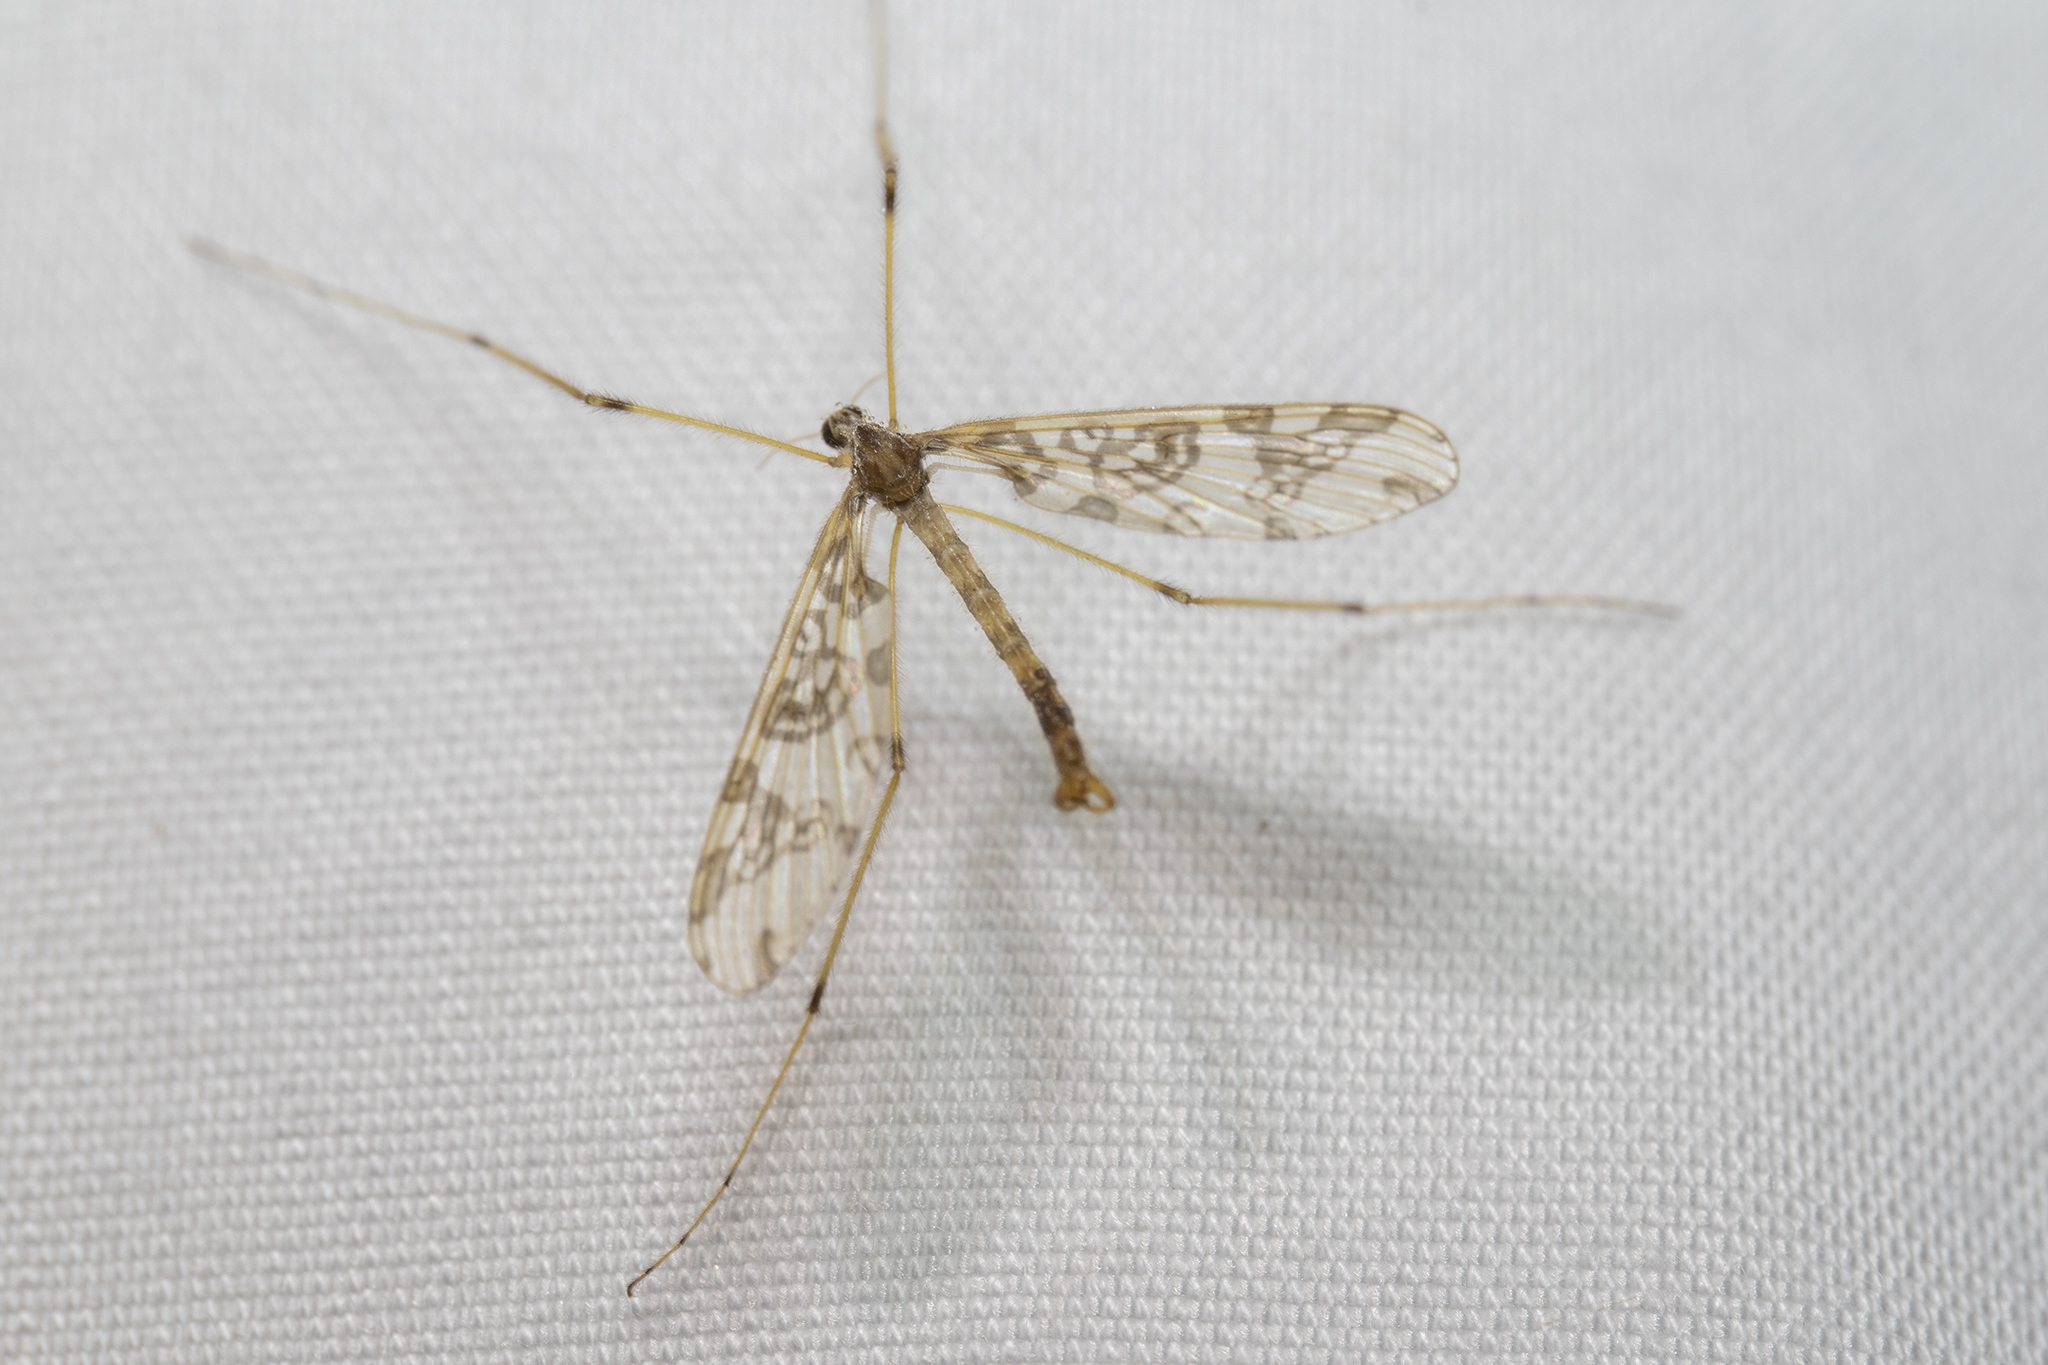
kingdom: Animalia
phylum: Arthropoda
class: Insecta
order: Diptera
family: Tanyderidae
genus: Tanyderus
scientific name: Tanyderus annuliferus
